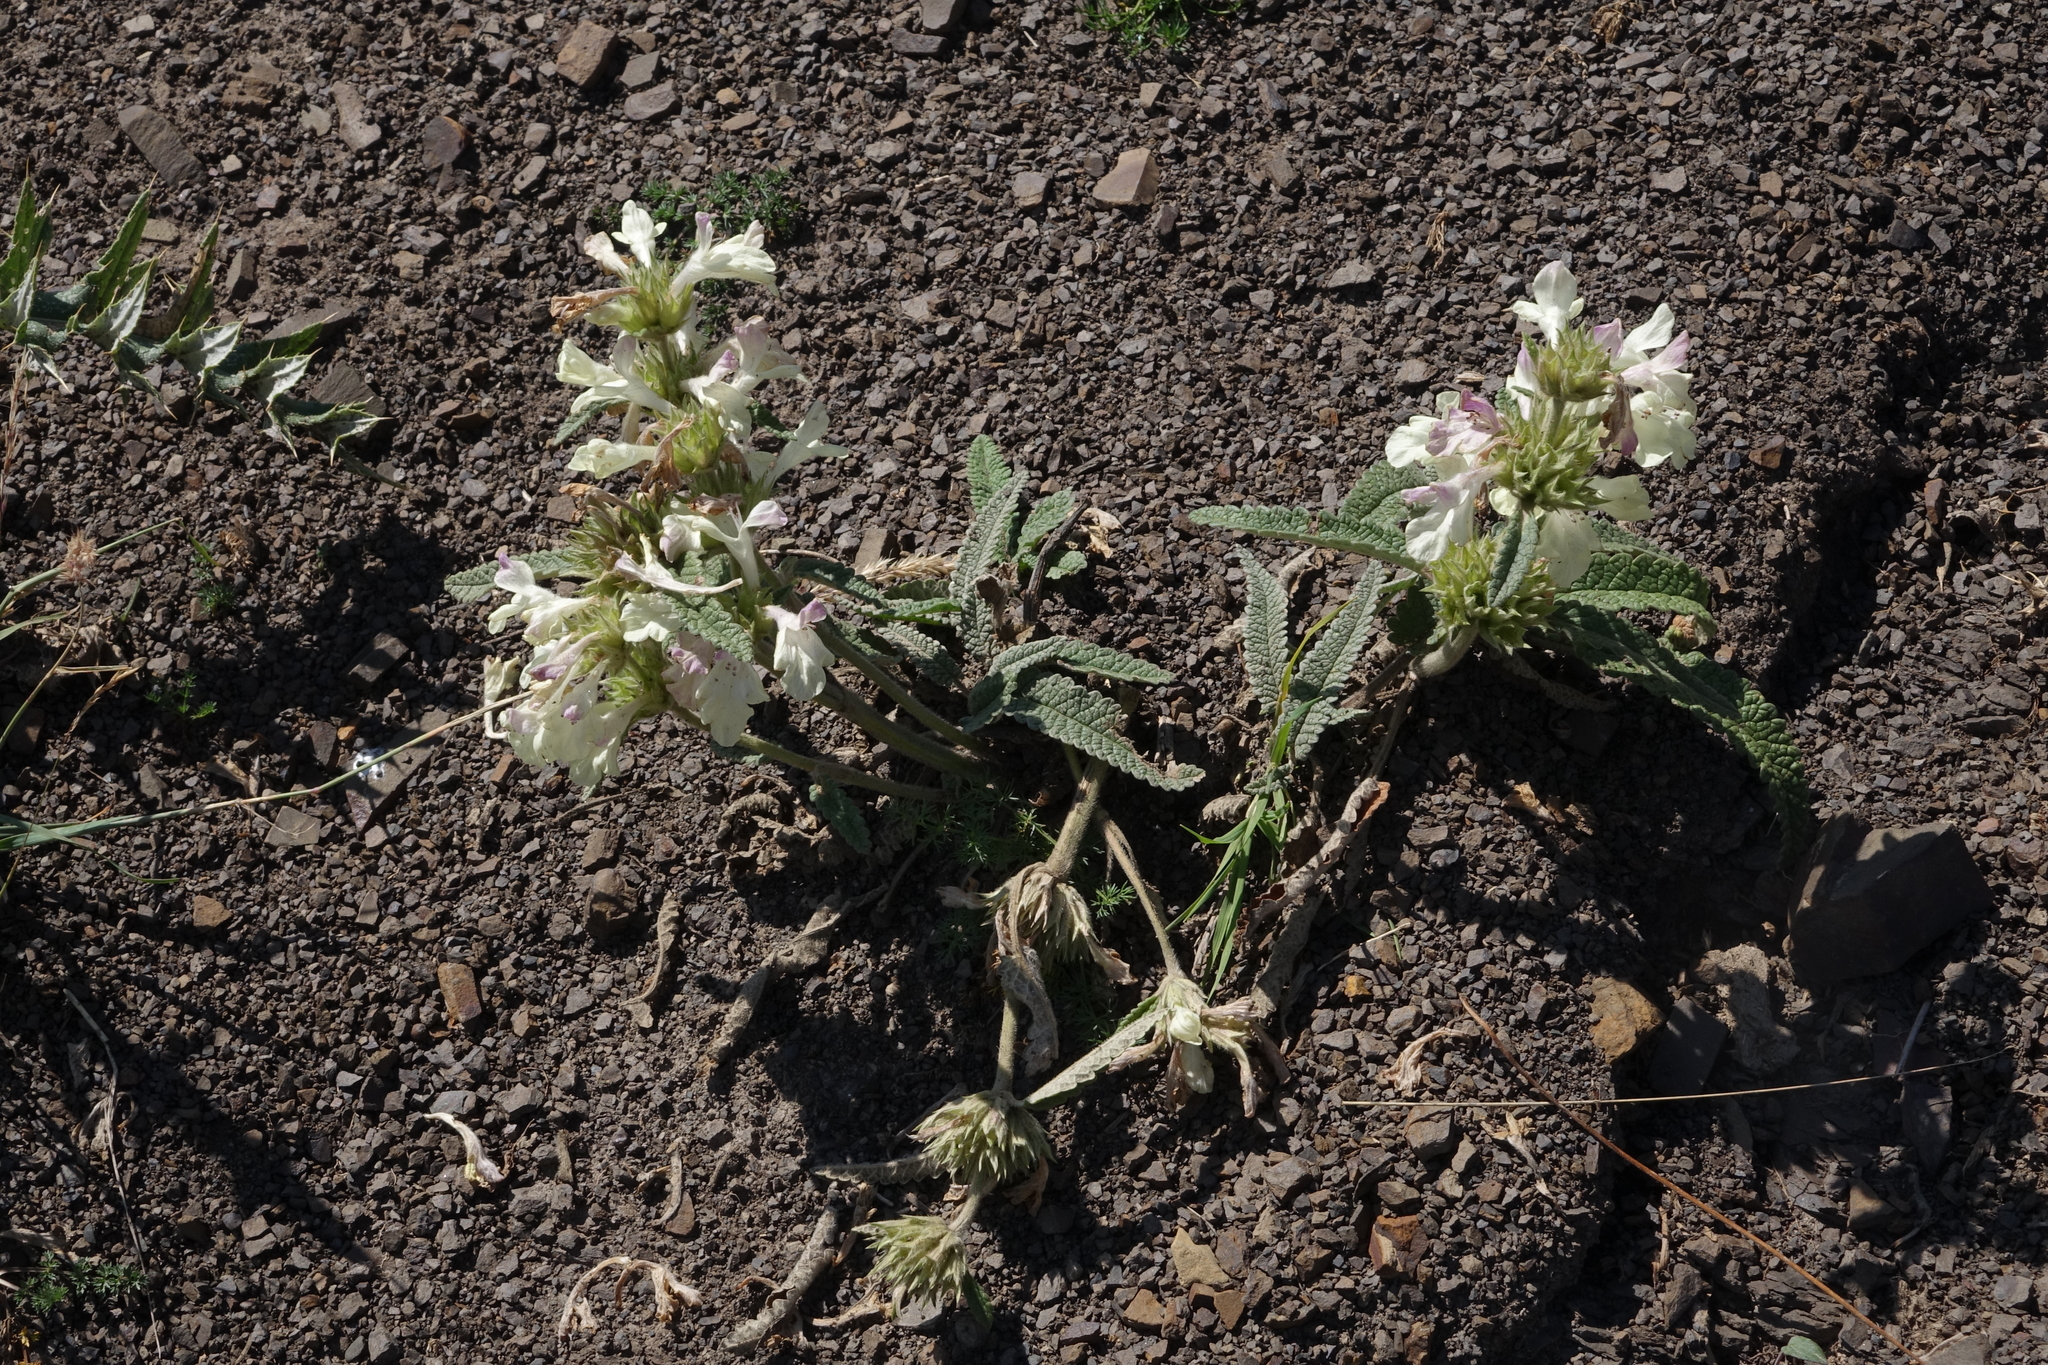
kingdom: Plantae
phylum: Tracheophyta
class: Magnoliopsida
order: Lamiales
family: Lamiaceae
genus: Betonica
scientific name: Betonica nivea
